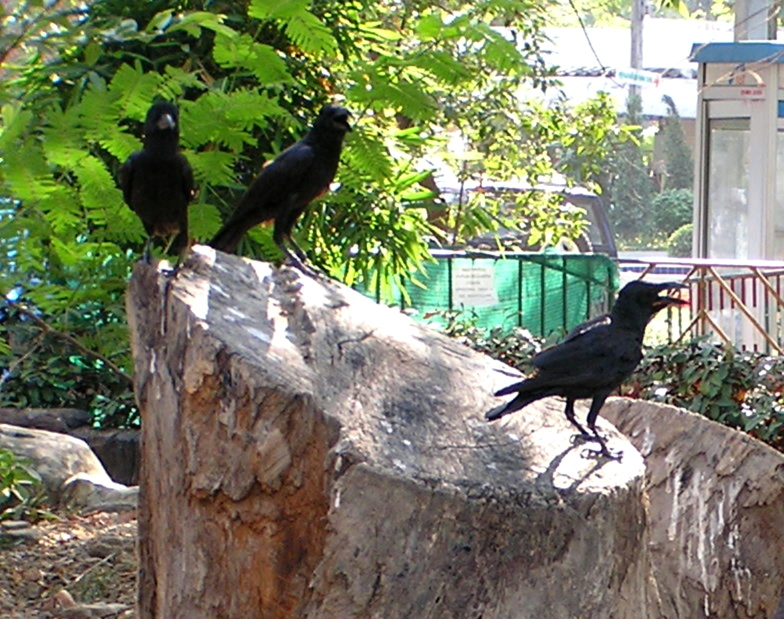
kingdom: Animalia
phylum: Chordata
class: Aves
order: Passeriformes
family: Corvidae
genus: Corvus
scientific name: Corvus macrorhynchos
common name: Large-billed crow
